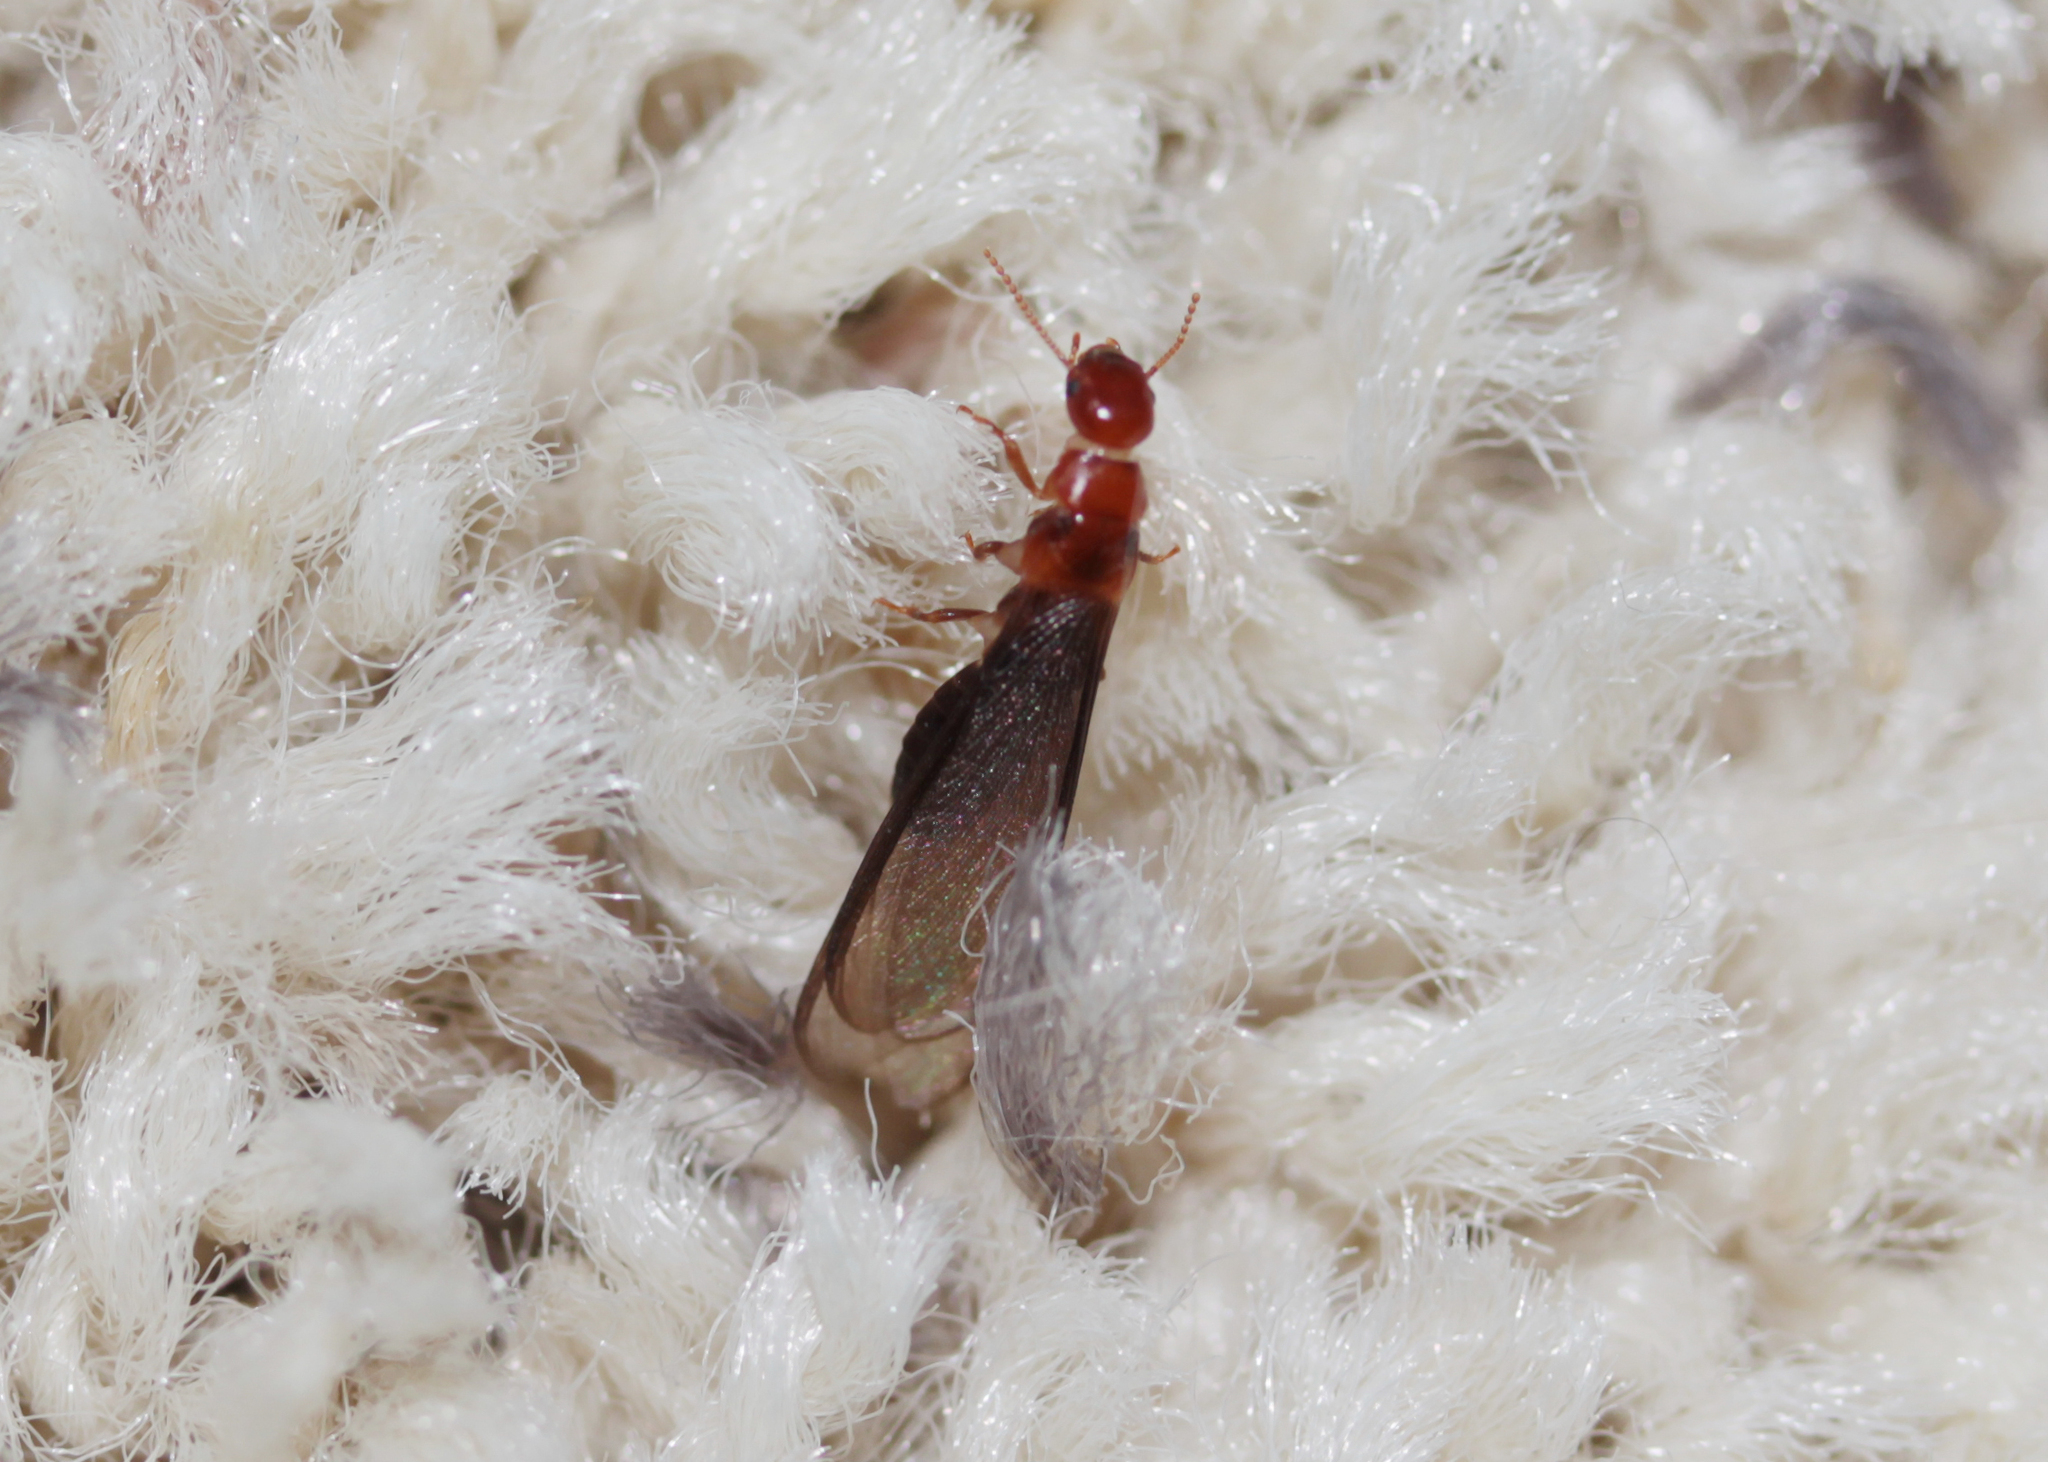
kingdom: Animalia
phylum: Arthropoda
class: Insecta
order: Blattodea
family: Kalotermitidae
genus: Incisitermes
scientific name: Incisitermes minor
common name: Termite
